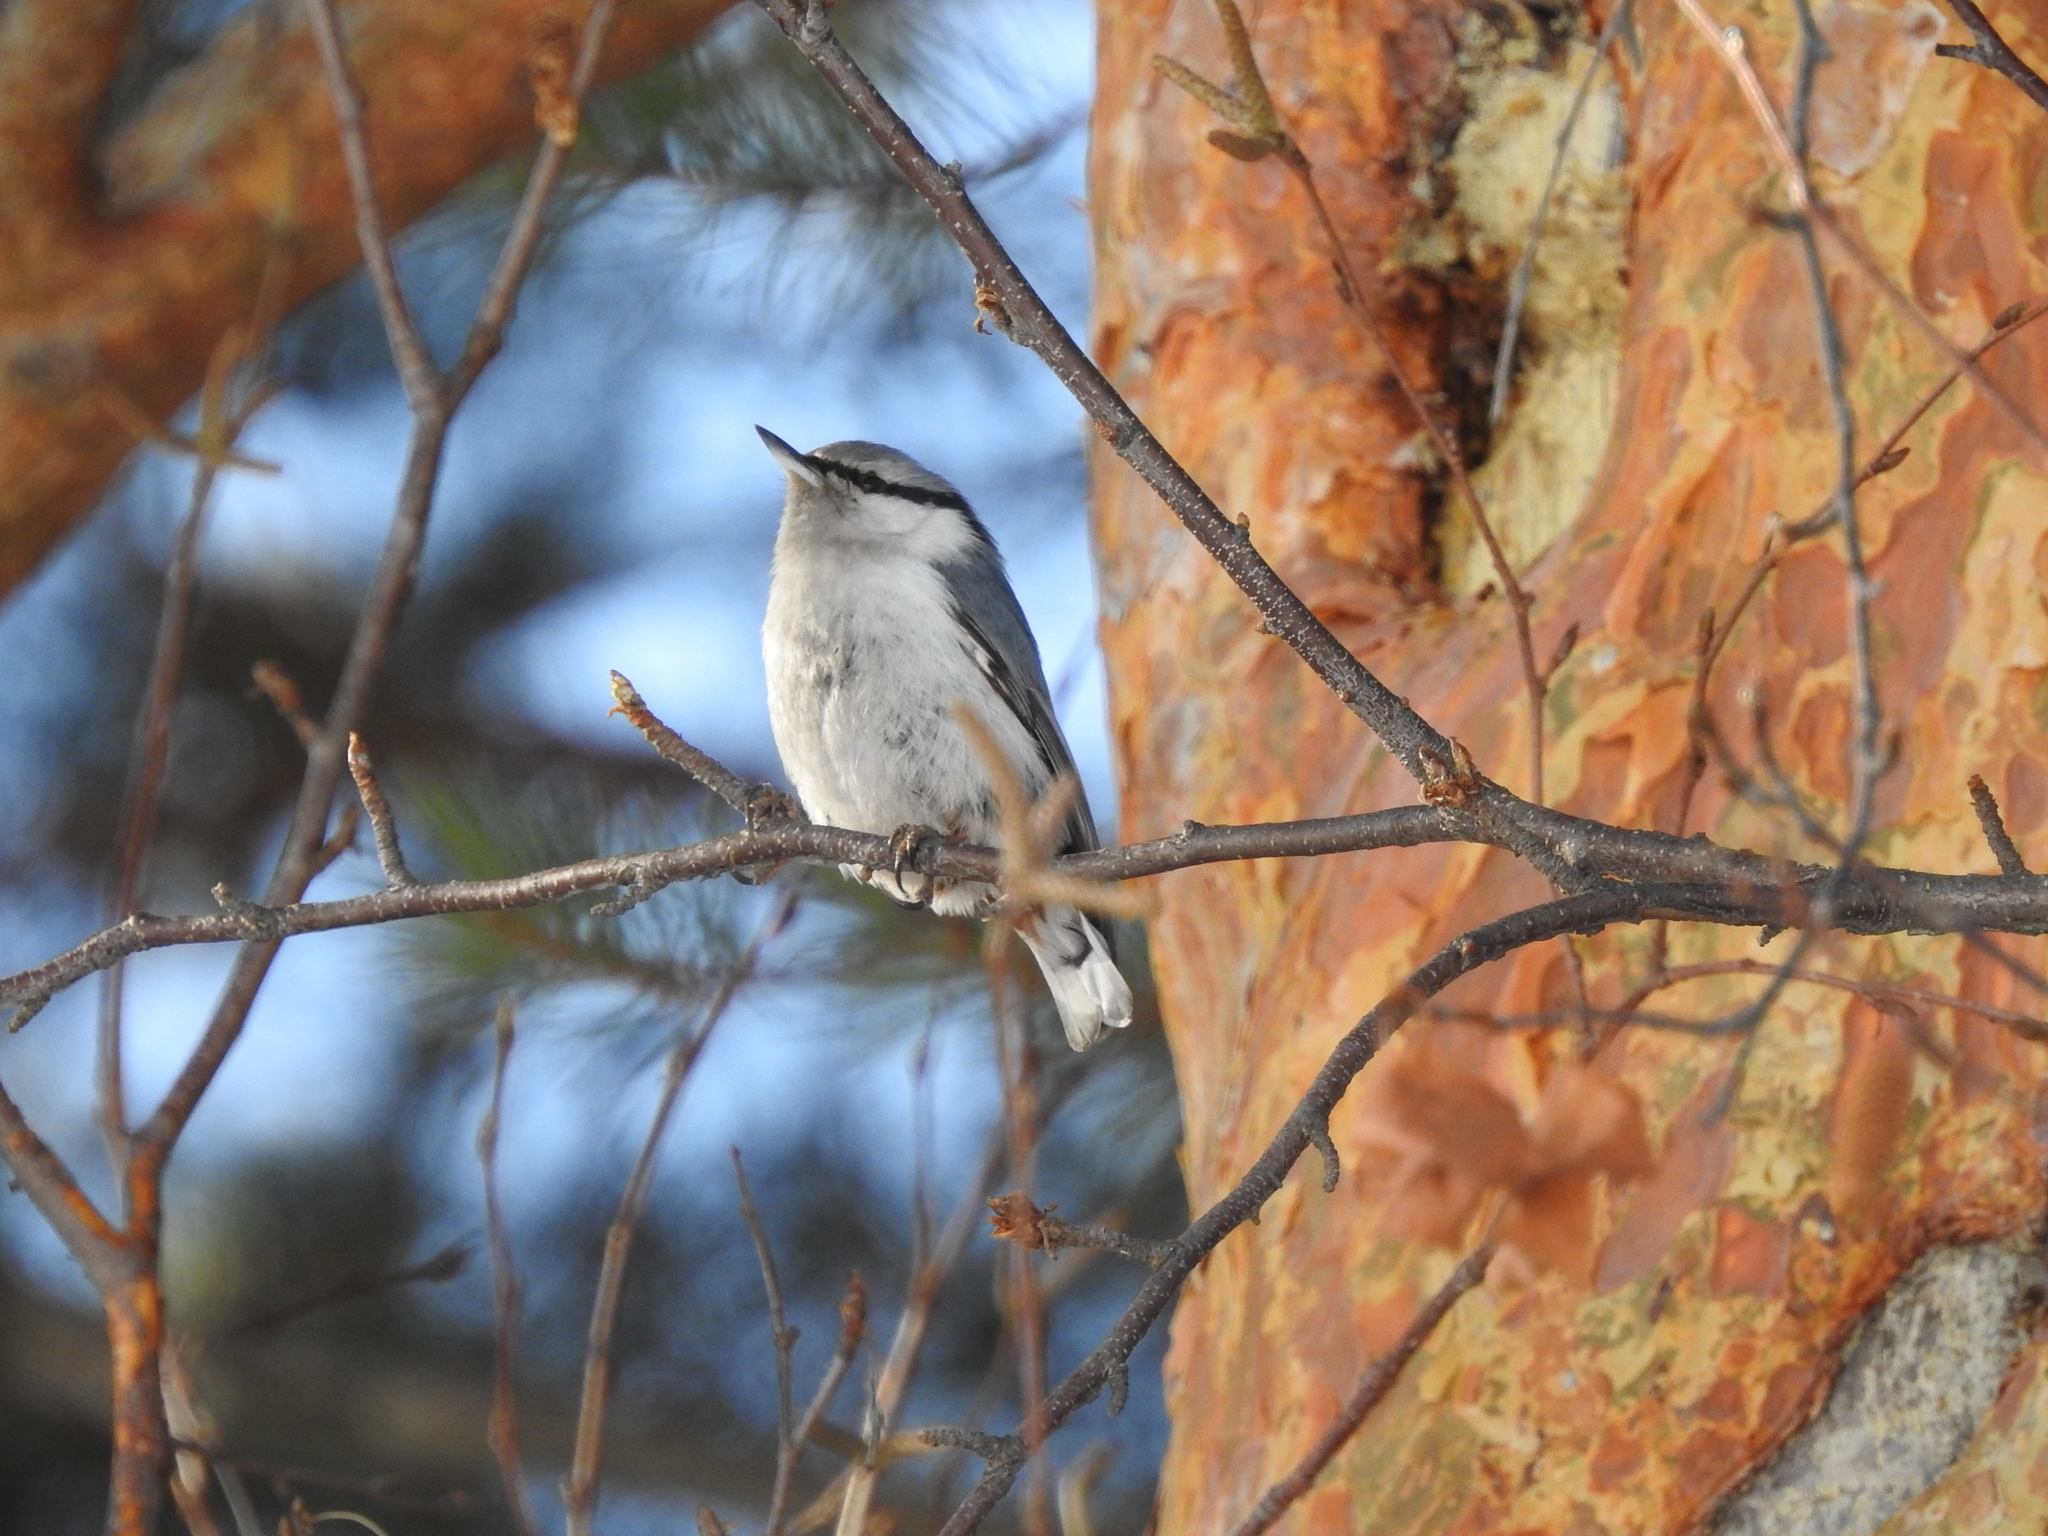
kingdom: Animalia
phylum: Chordata
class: Aves
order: Passeriformes
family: Sittidae
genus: Sitta
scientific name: Sitta europaea
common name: Eurasian nuthatch
